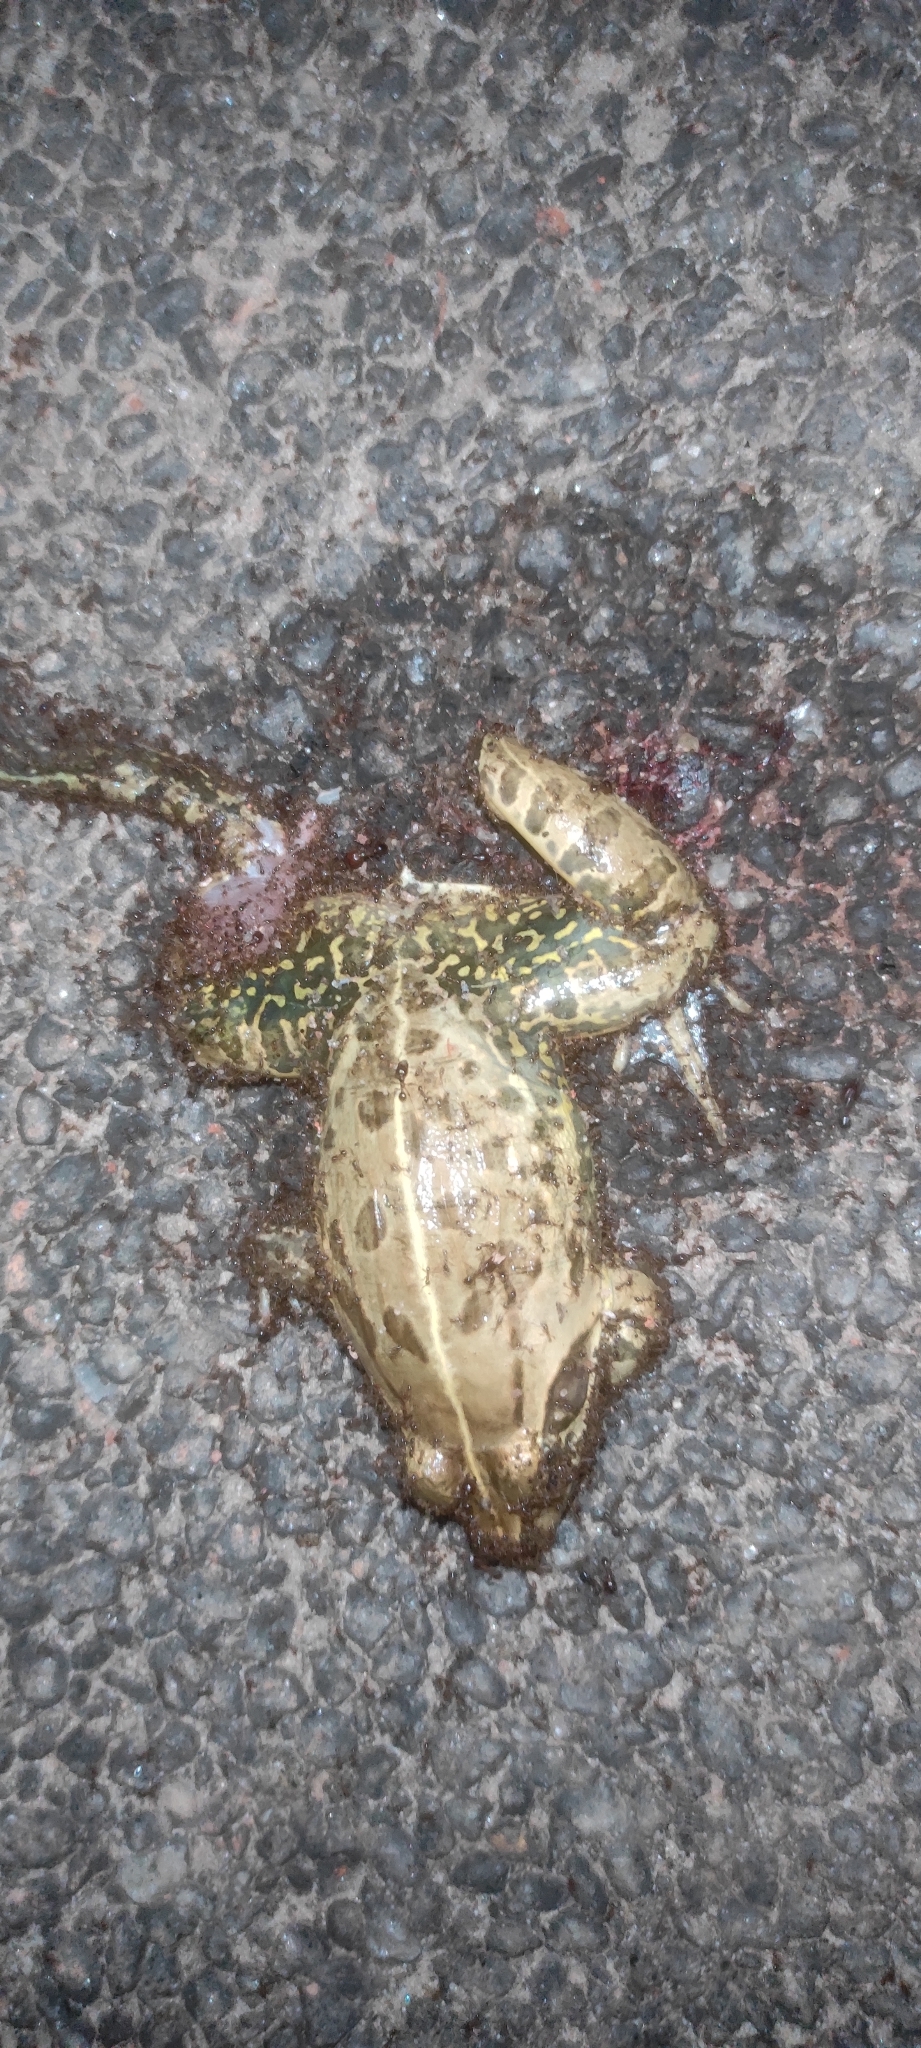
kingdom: Animalia
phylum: Chordata
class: Amphibia
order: Anura
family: Dicroglossidae
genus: Hoplobatrachus
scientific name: Hoplobatrachus tigerinus
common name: Indian bullfrog
